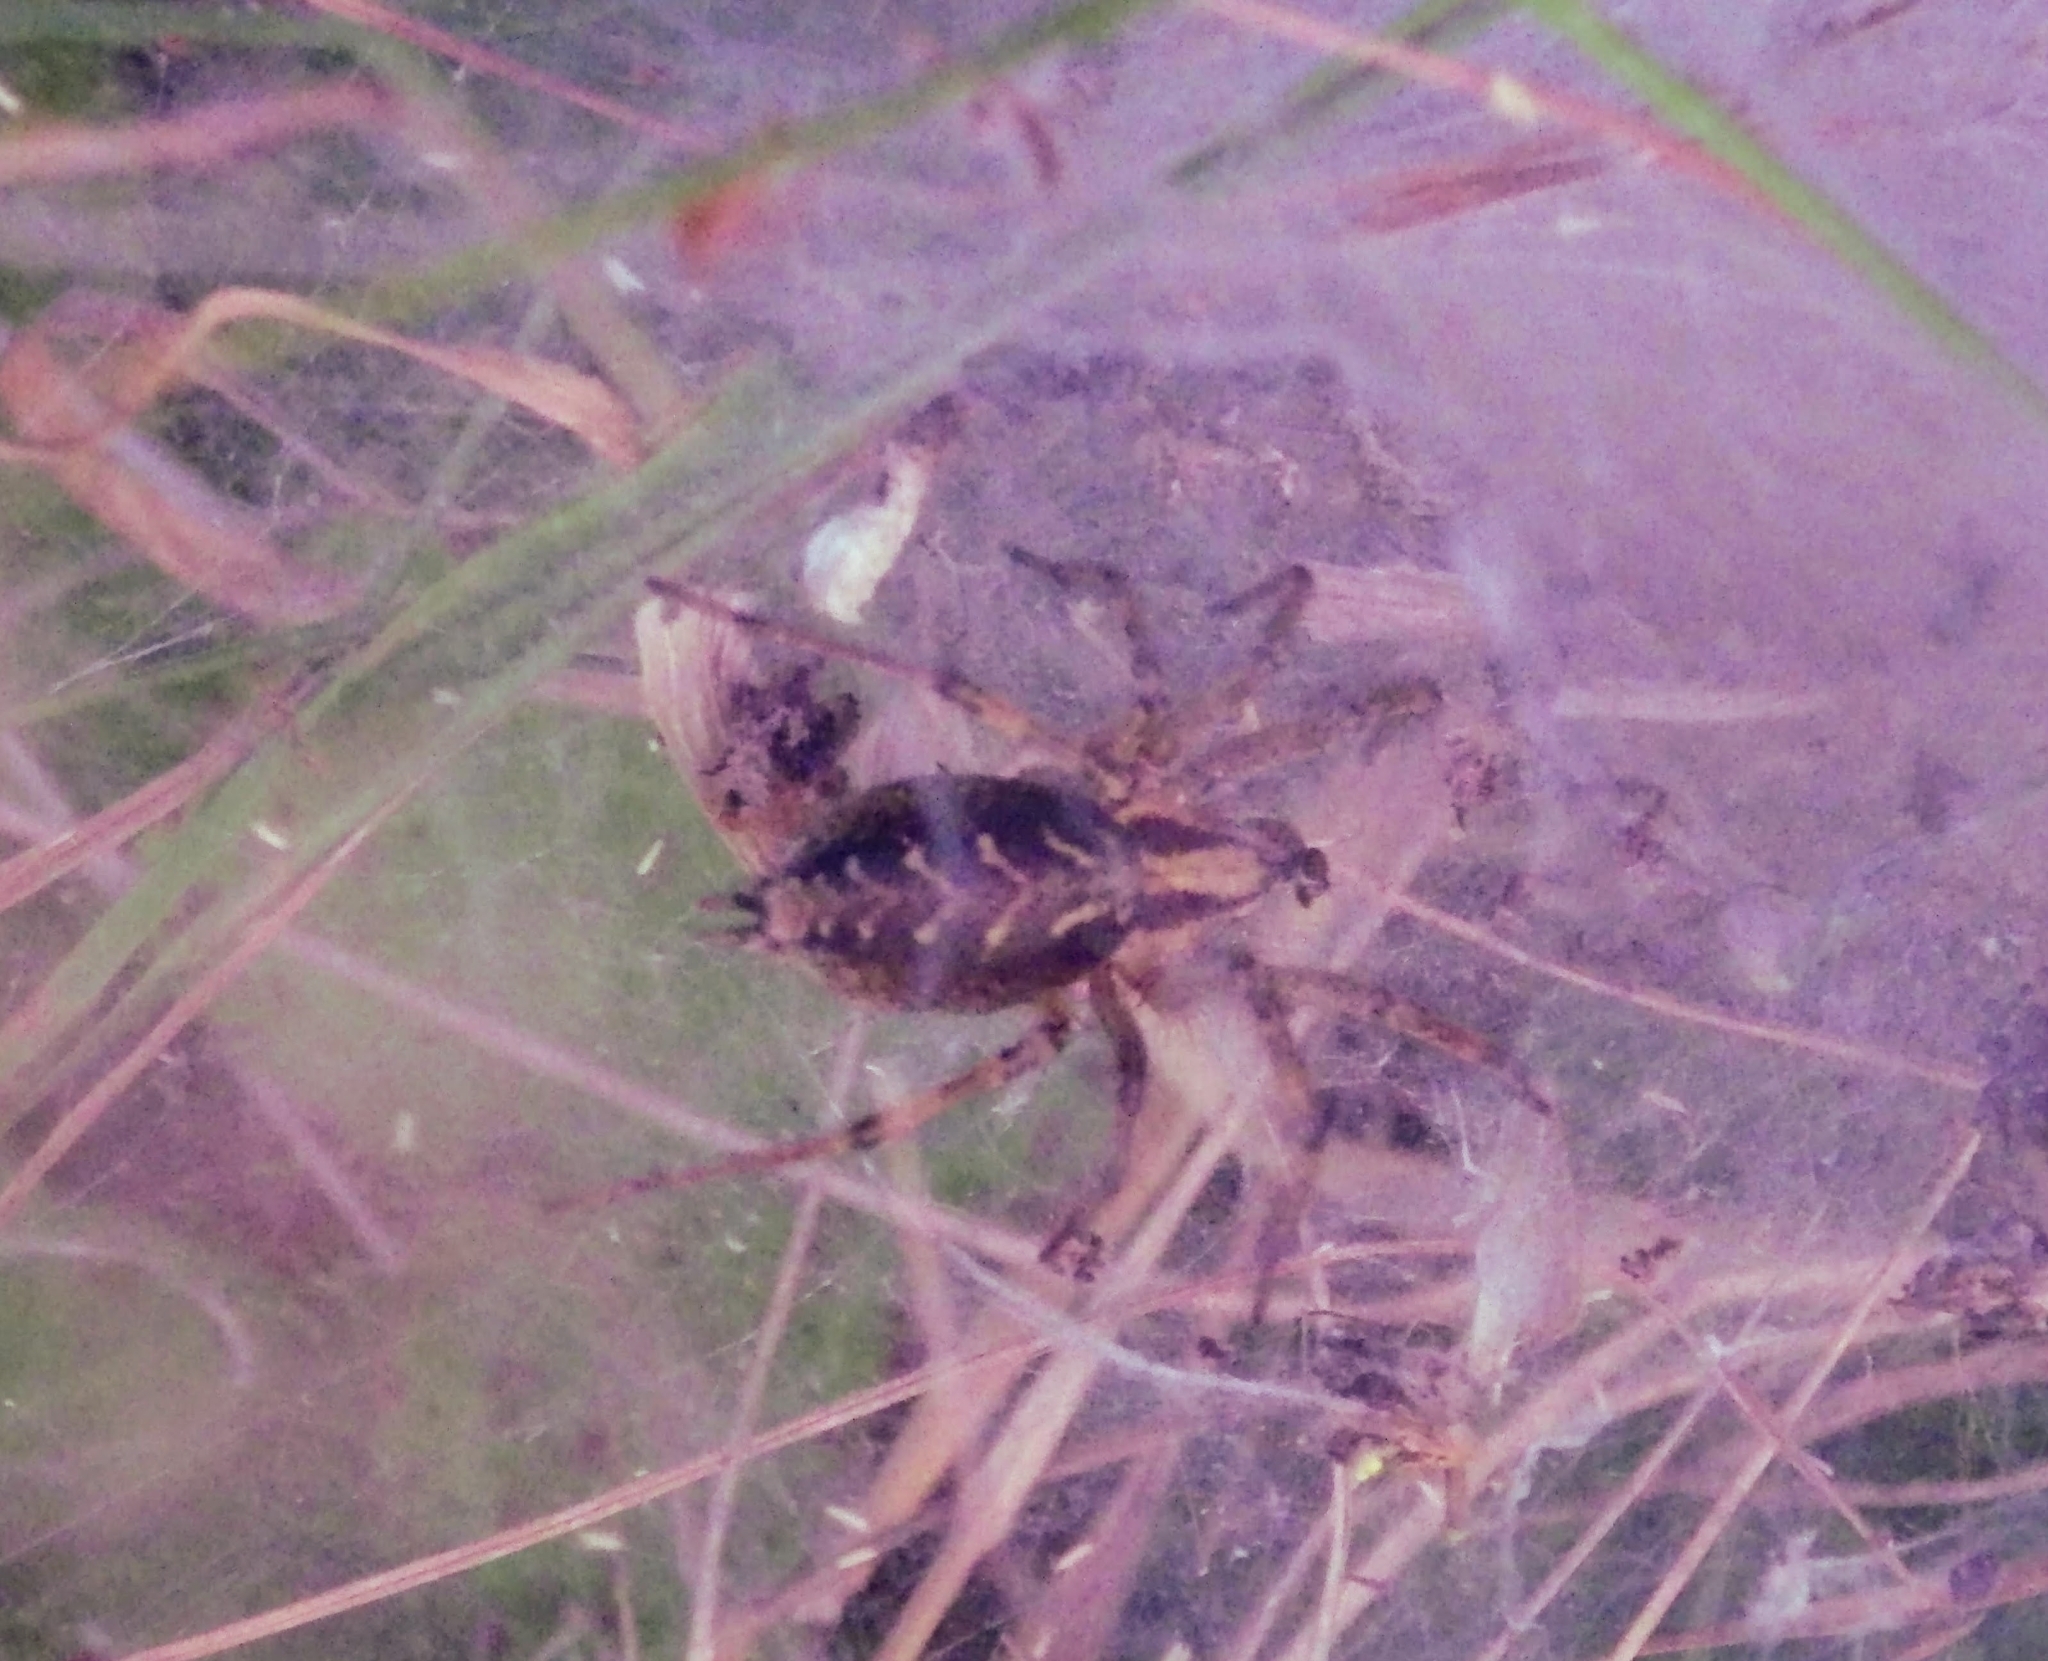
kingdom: Animalia
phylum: Arthropoda
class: Arachnida
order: Araneae
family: Agelenidae
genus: Agelena
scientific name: Agelena labyrinthica
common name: Labyrinth spider
